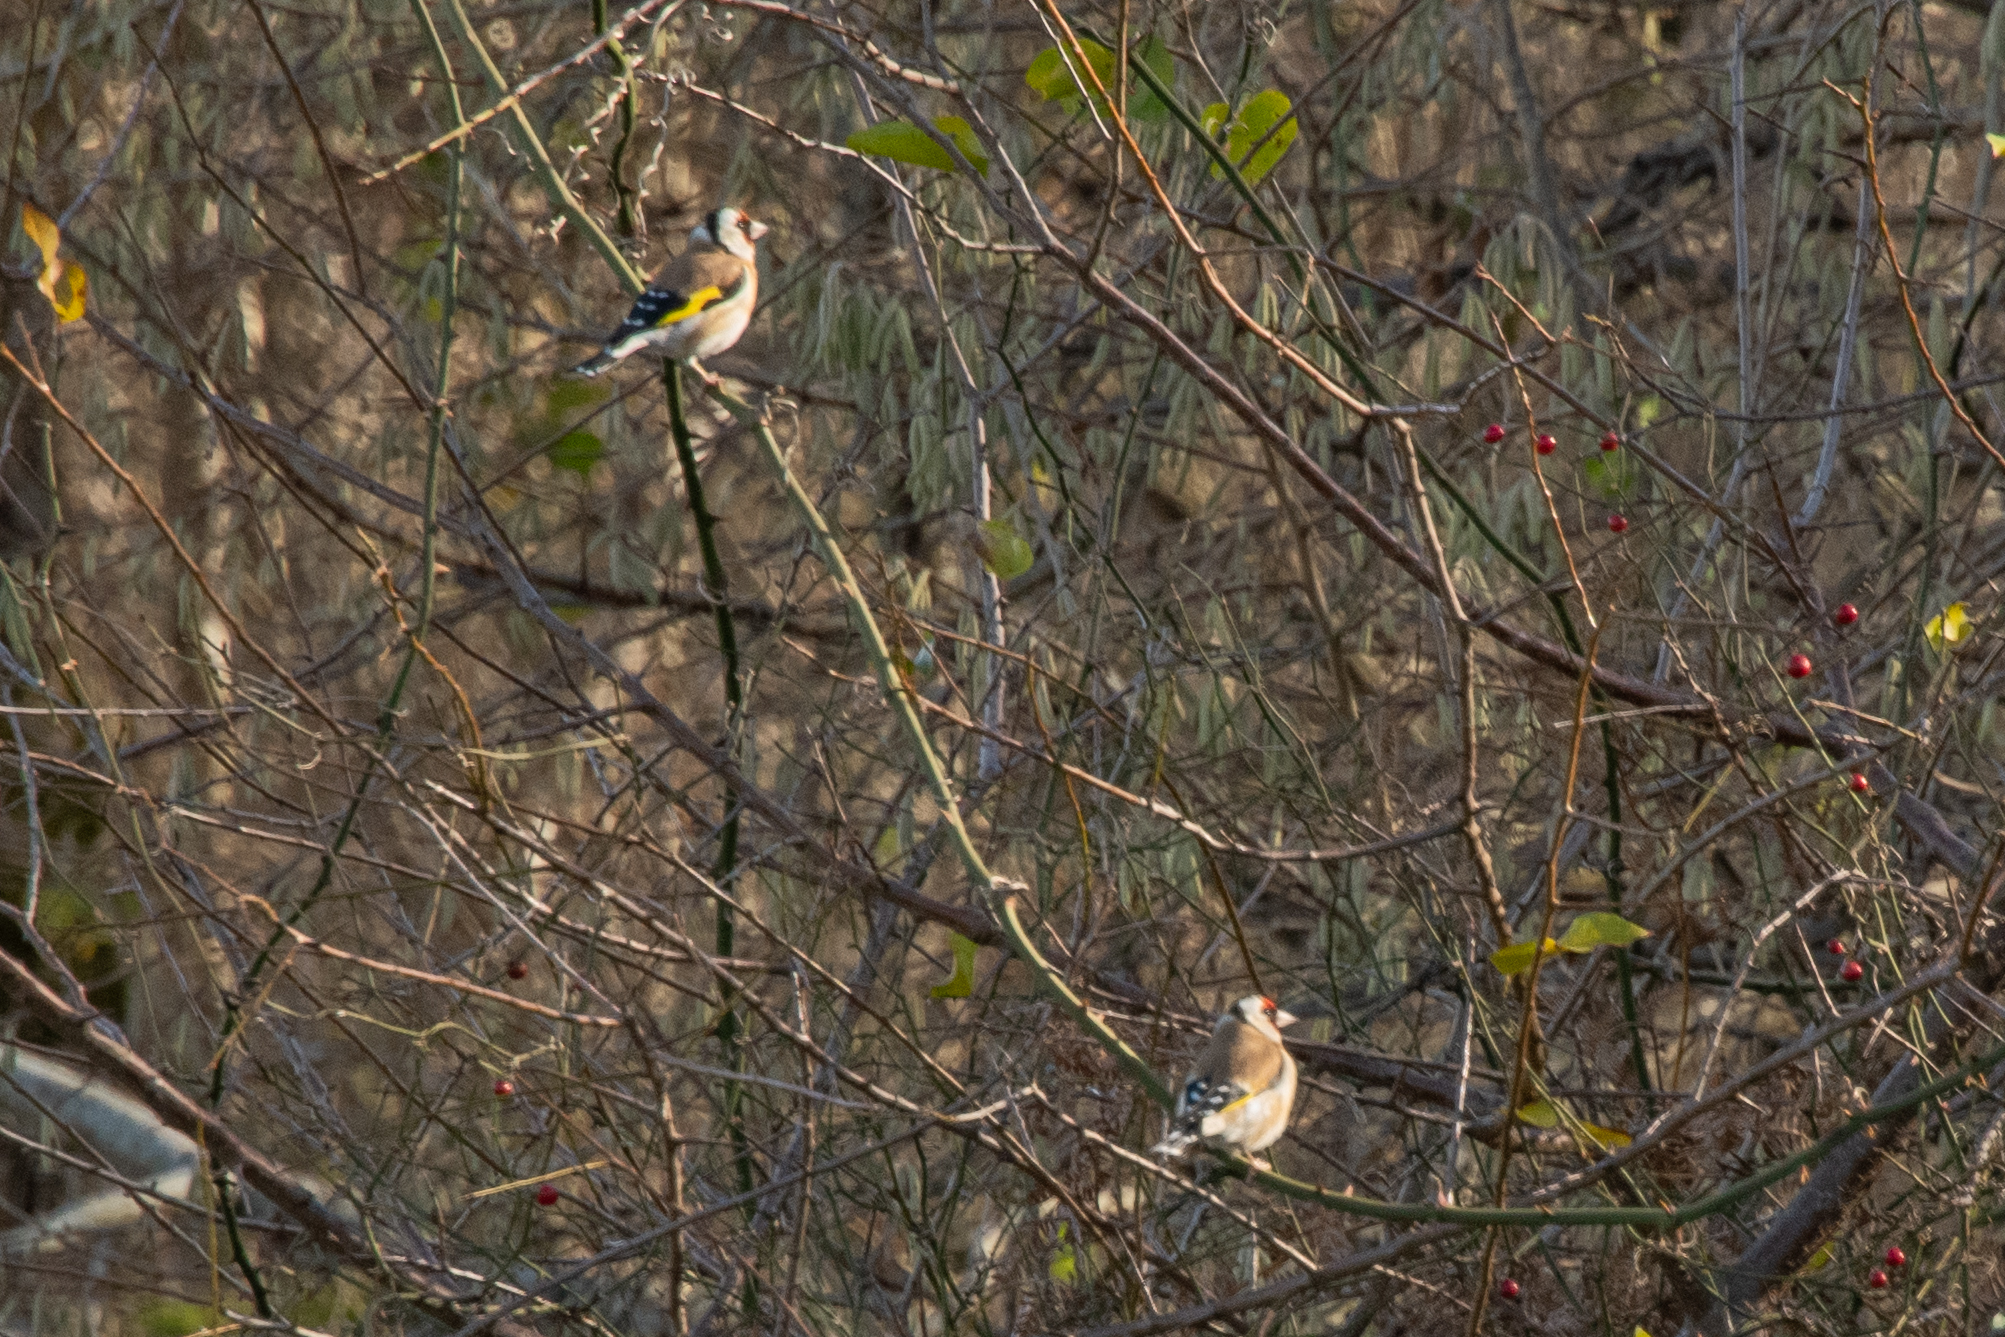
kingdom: Animalia
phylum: Chordata
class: Aves
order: Passeriformes
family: Fringillidae
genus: Carduelis
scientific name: Carduelis carduelis
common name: European goldfinch
